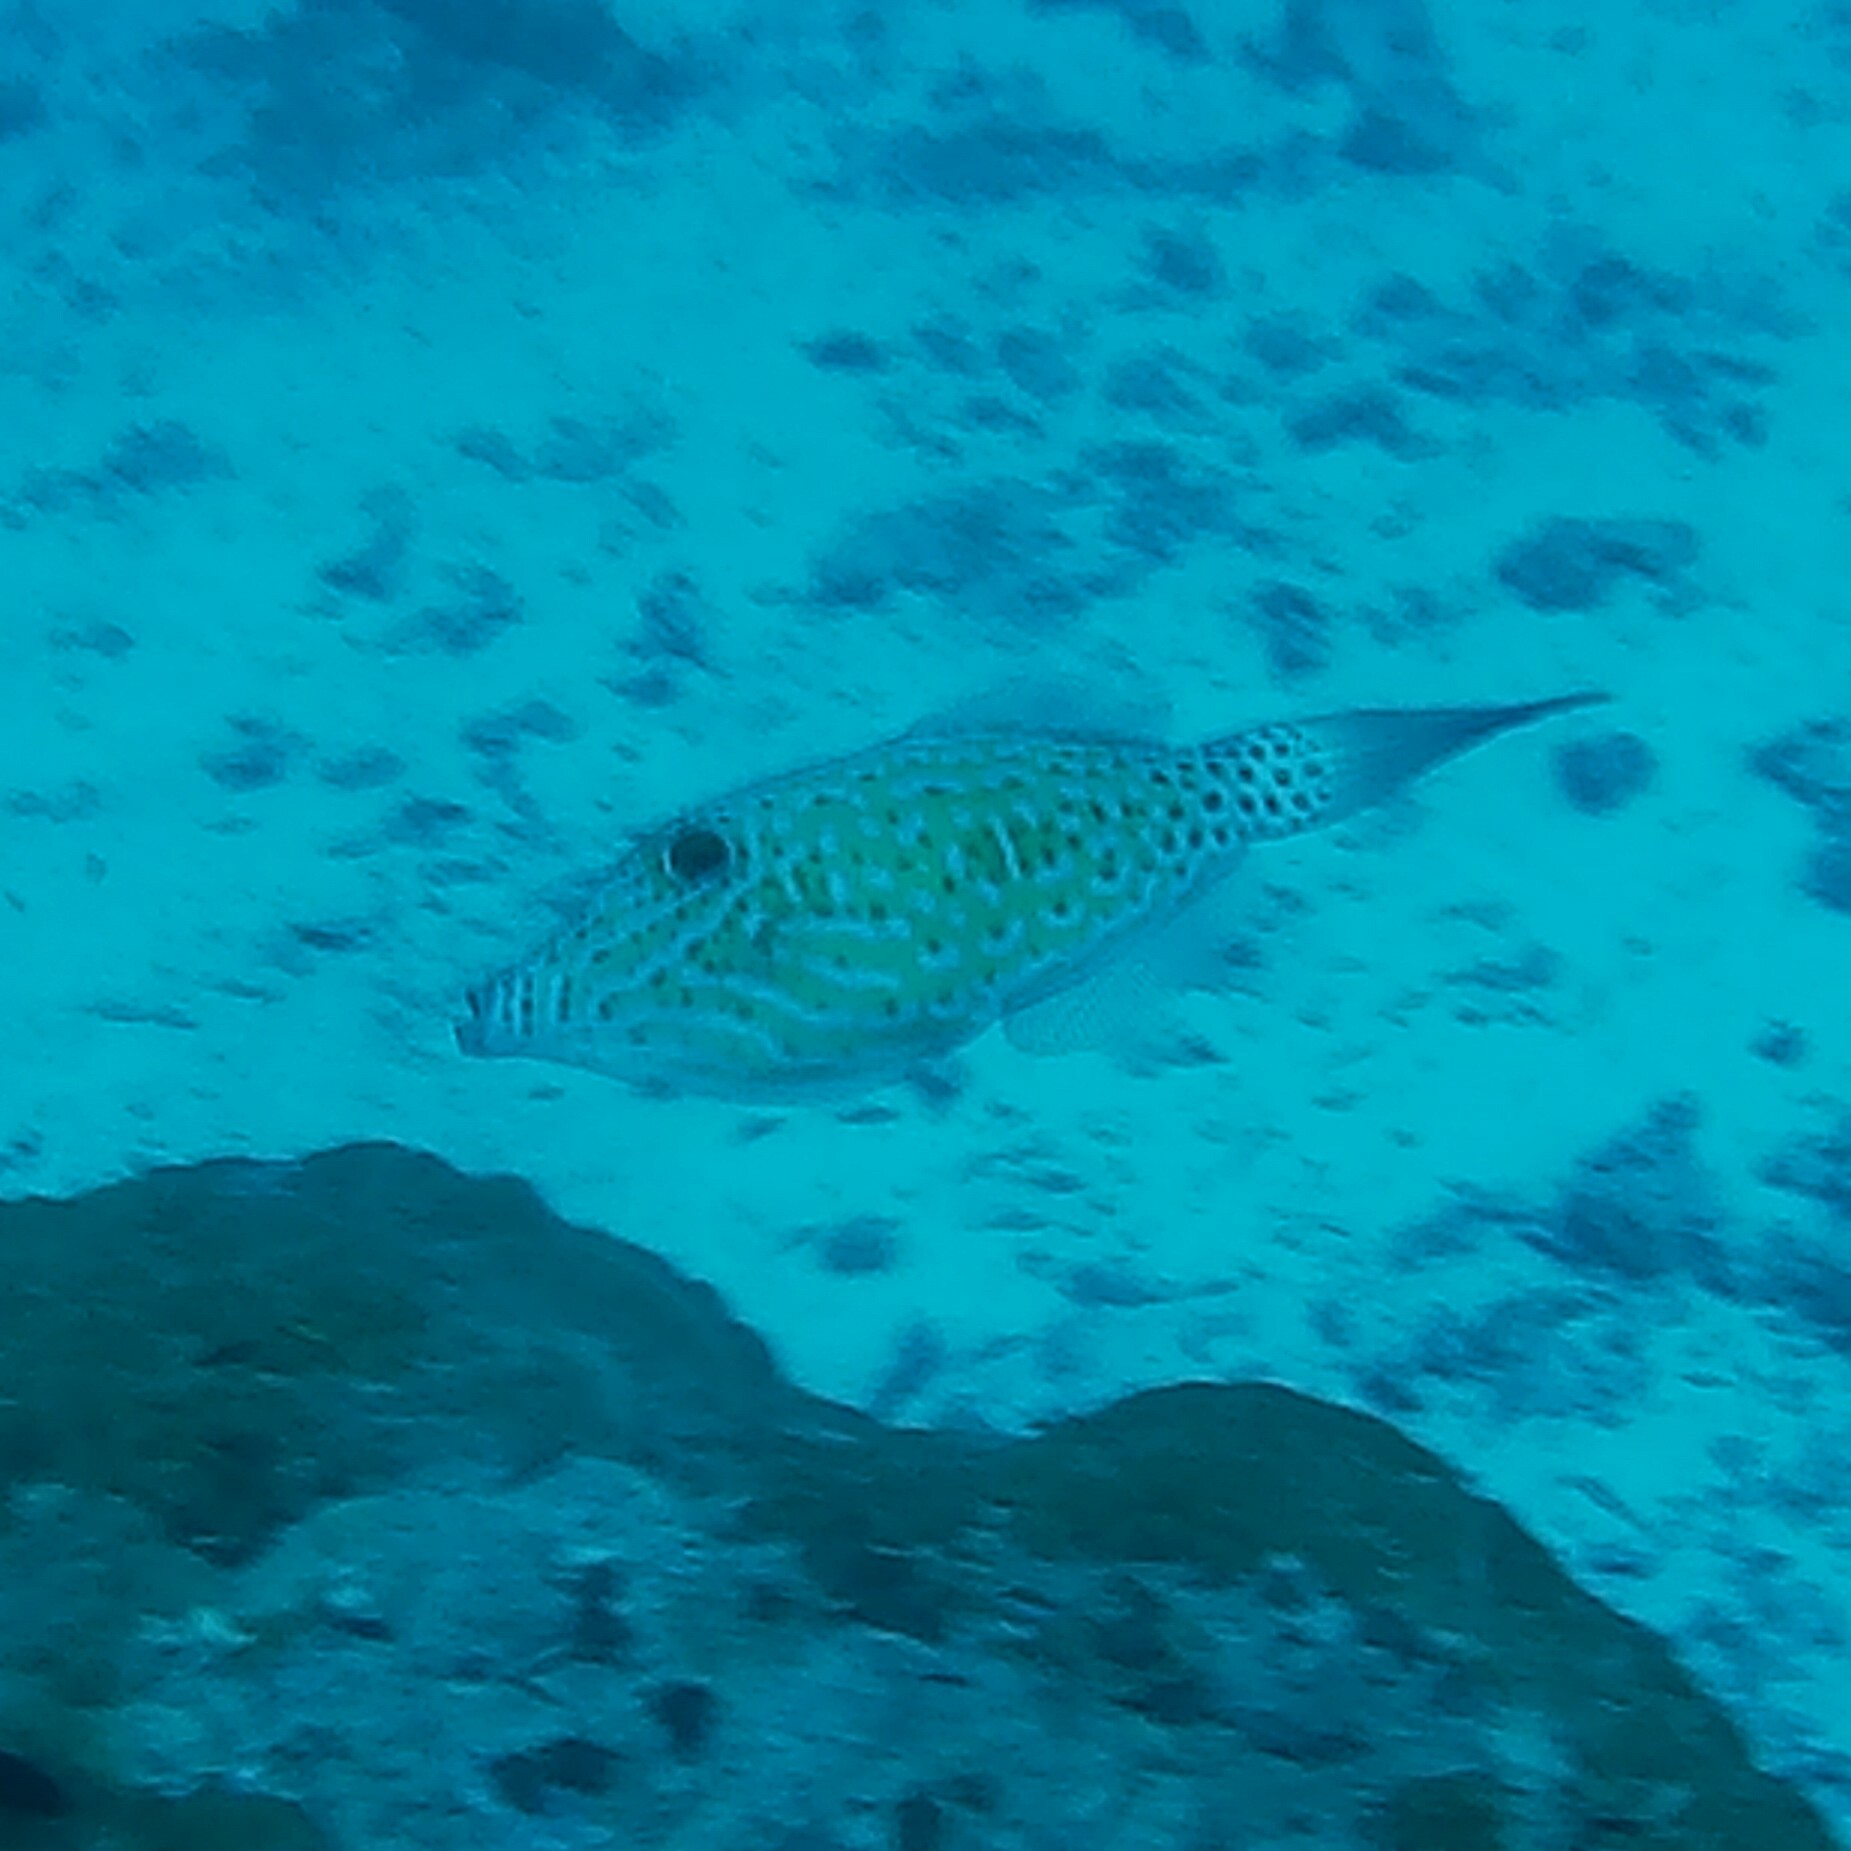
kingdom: Animalia
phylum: Chordata
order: Tetraodontiformes
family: Monacanthidae
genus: Aluterus
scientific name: Aluterus scriptus
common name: Scribbled leatherjacket filefish
